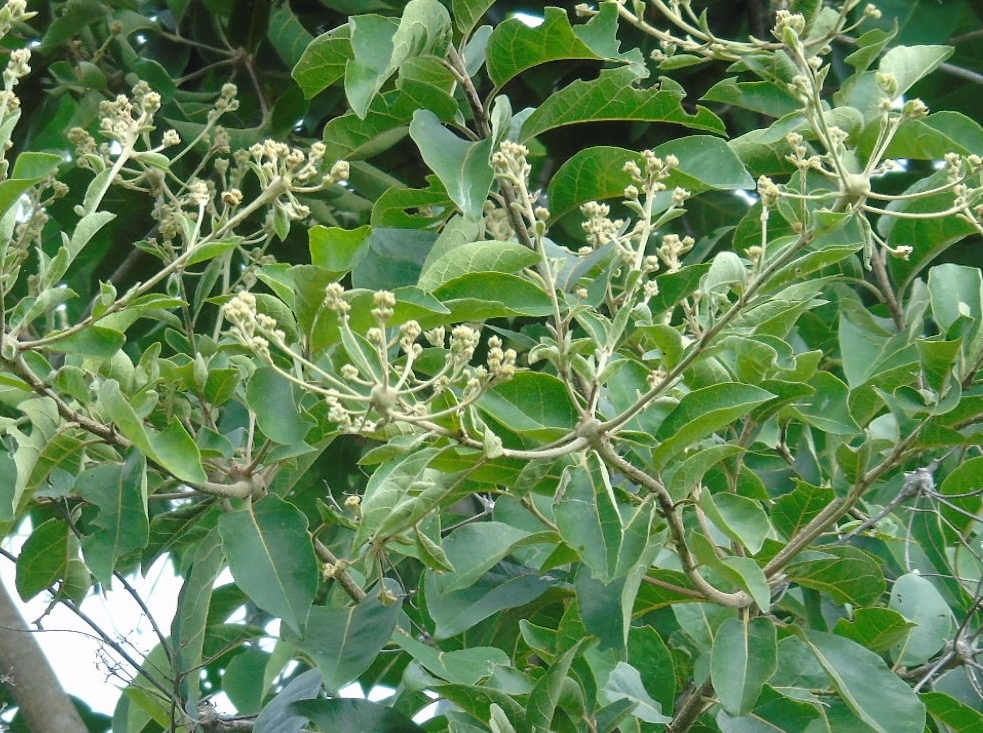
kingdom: Plantae
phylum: Tracheophyta
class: Magnoliopsida
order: Boraginales
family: Cordiaceae
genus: Cordia
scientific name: Cordia alliodora
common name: Spanish elm
